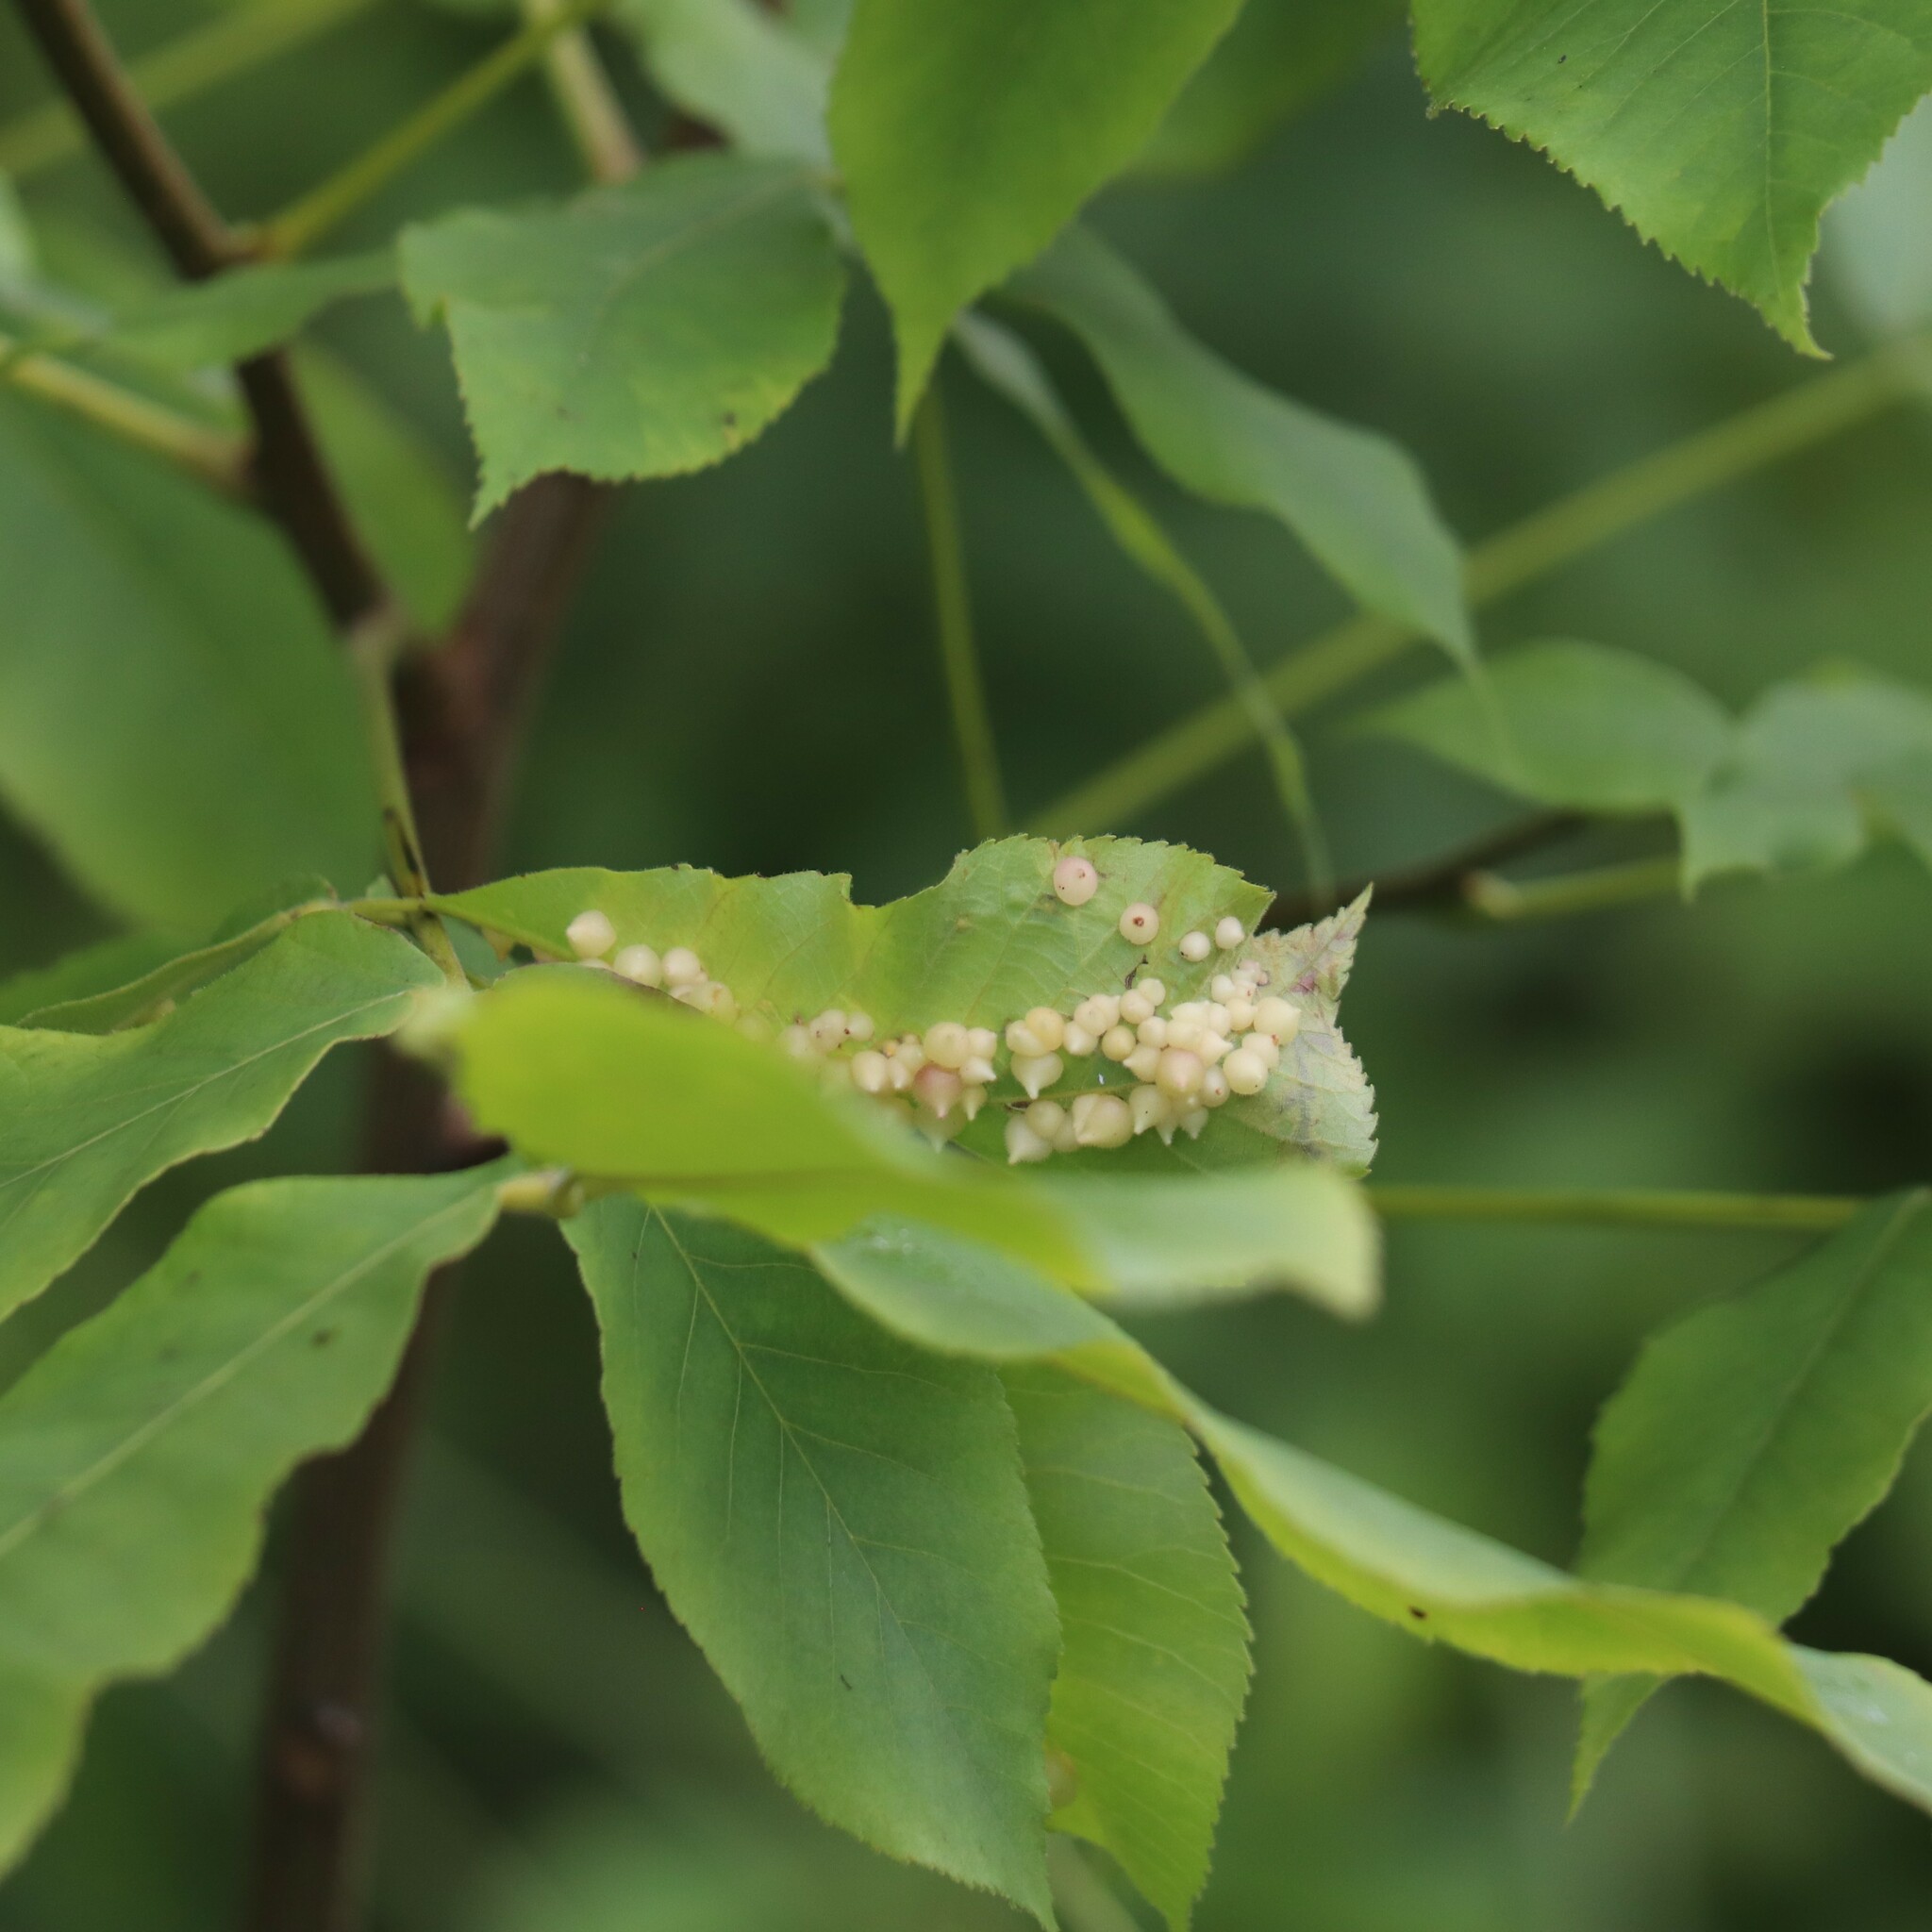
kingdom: Animalia
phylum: Arthropoda
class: Insecta
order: Diptera
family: Cecidomyiidae
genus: Caryomyia
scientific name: Caryomyia conoidea
